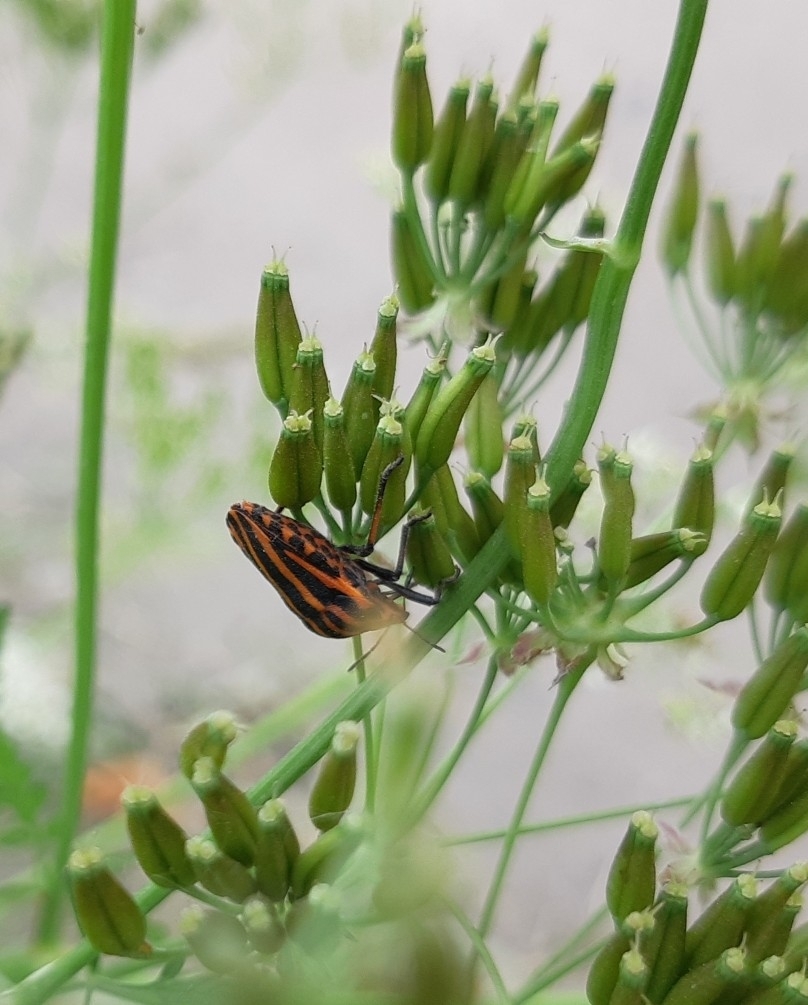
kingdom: Animalia
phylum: Arthropoda
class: Insecta
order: Hemiptera
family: Pentatomidae
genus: Graphosoma
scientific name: Graphosoma italicum
